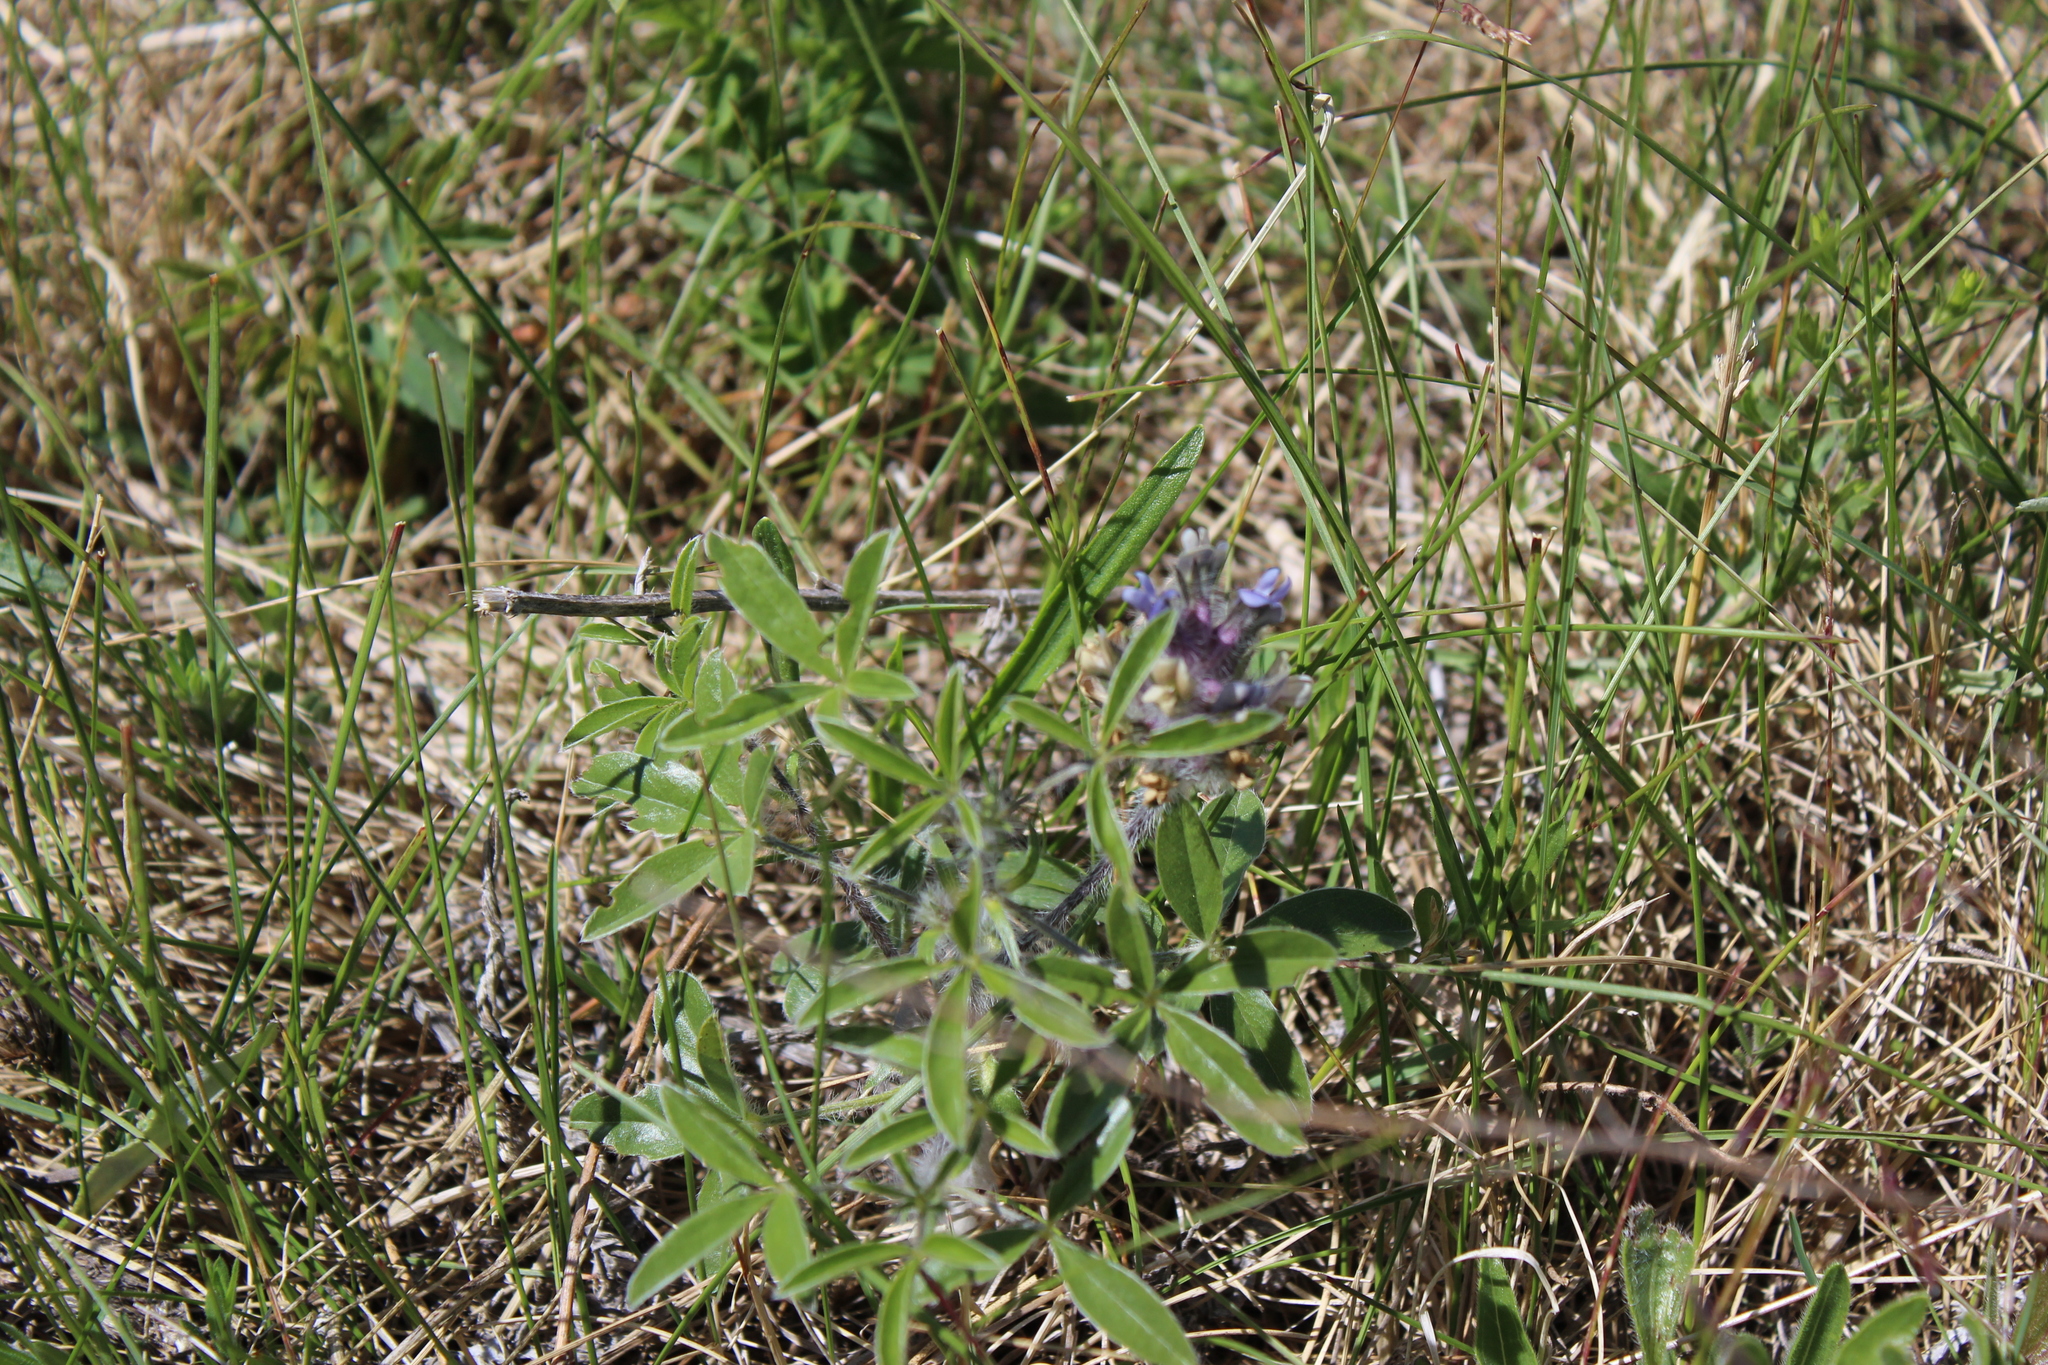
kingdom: Plantae
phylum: Tracheophyta
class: Magnoliopsida
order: Fabales
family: Fabaceae
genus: Pediomelum
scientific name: Pediomelum esculentum
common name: Indian-turnip
